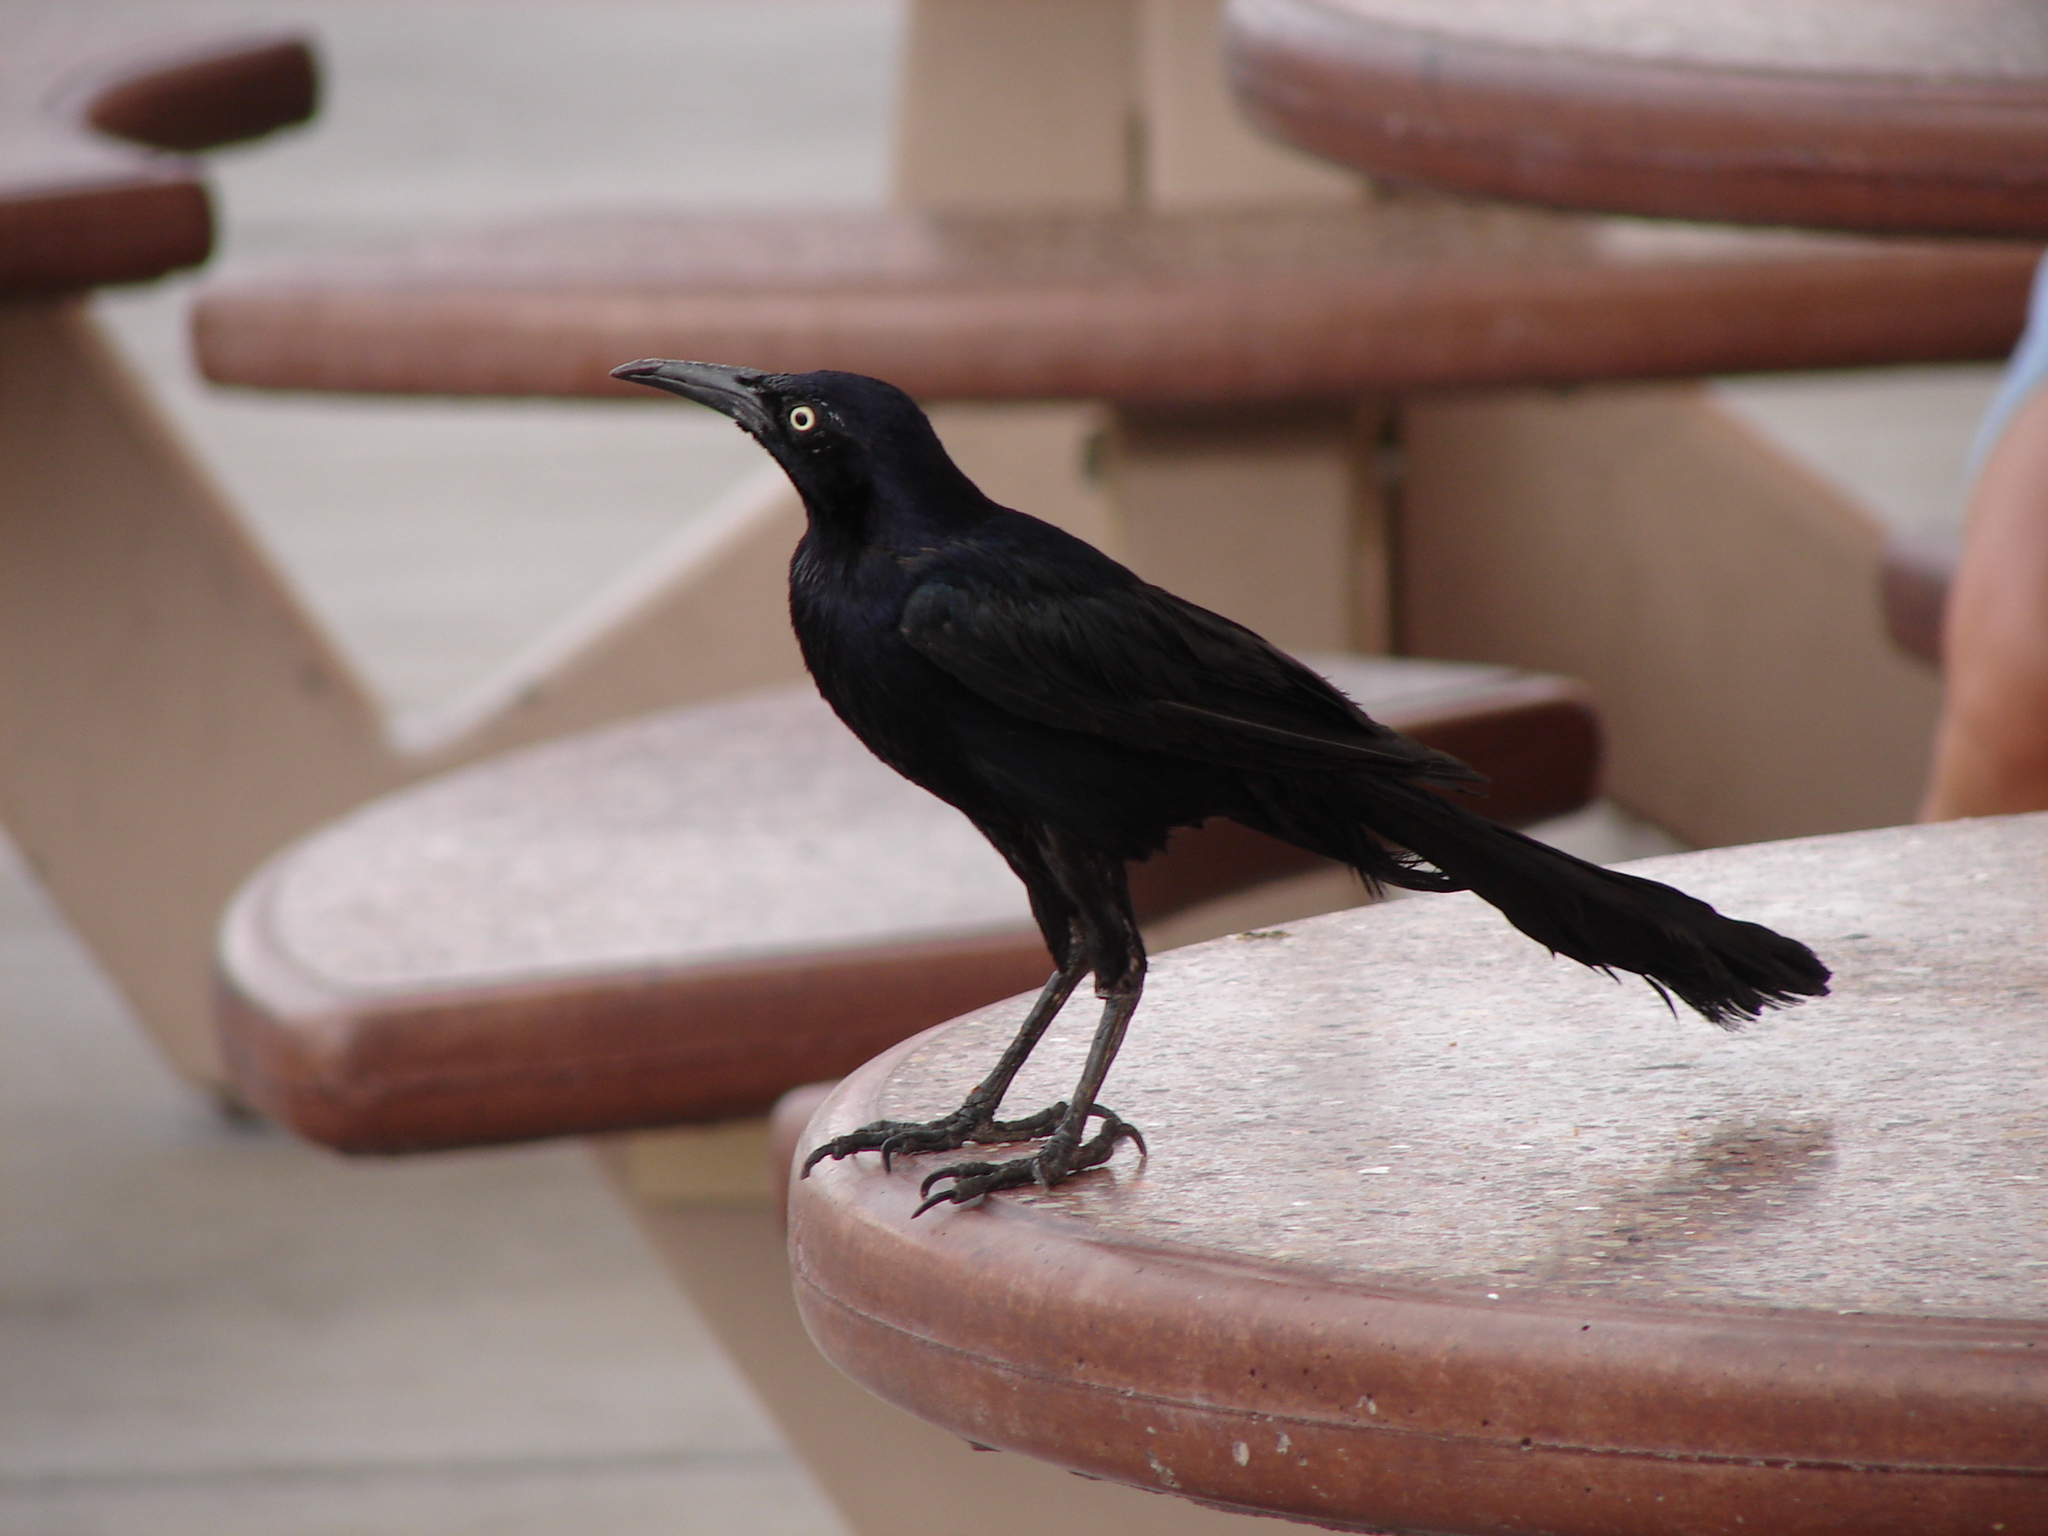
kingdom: Animalia
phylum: Chordata
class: Aves
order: Passeriformes
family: Icteridae
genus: Quiscalus
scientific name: Quiscalus mexicanus
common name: Great-tailed grackle
